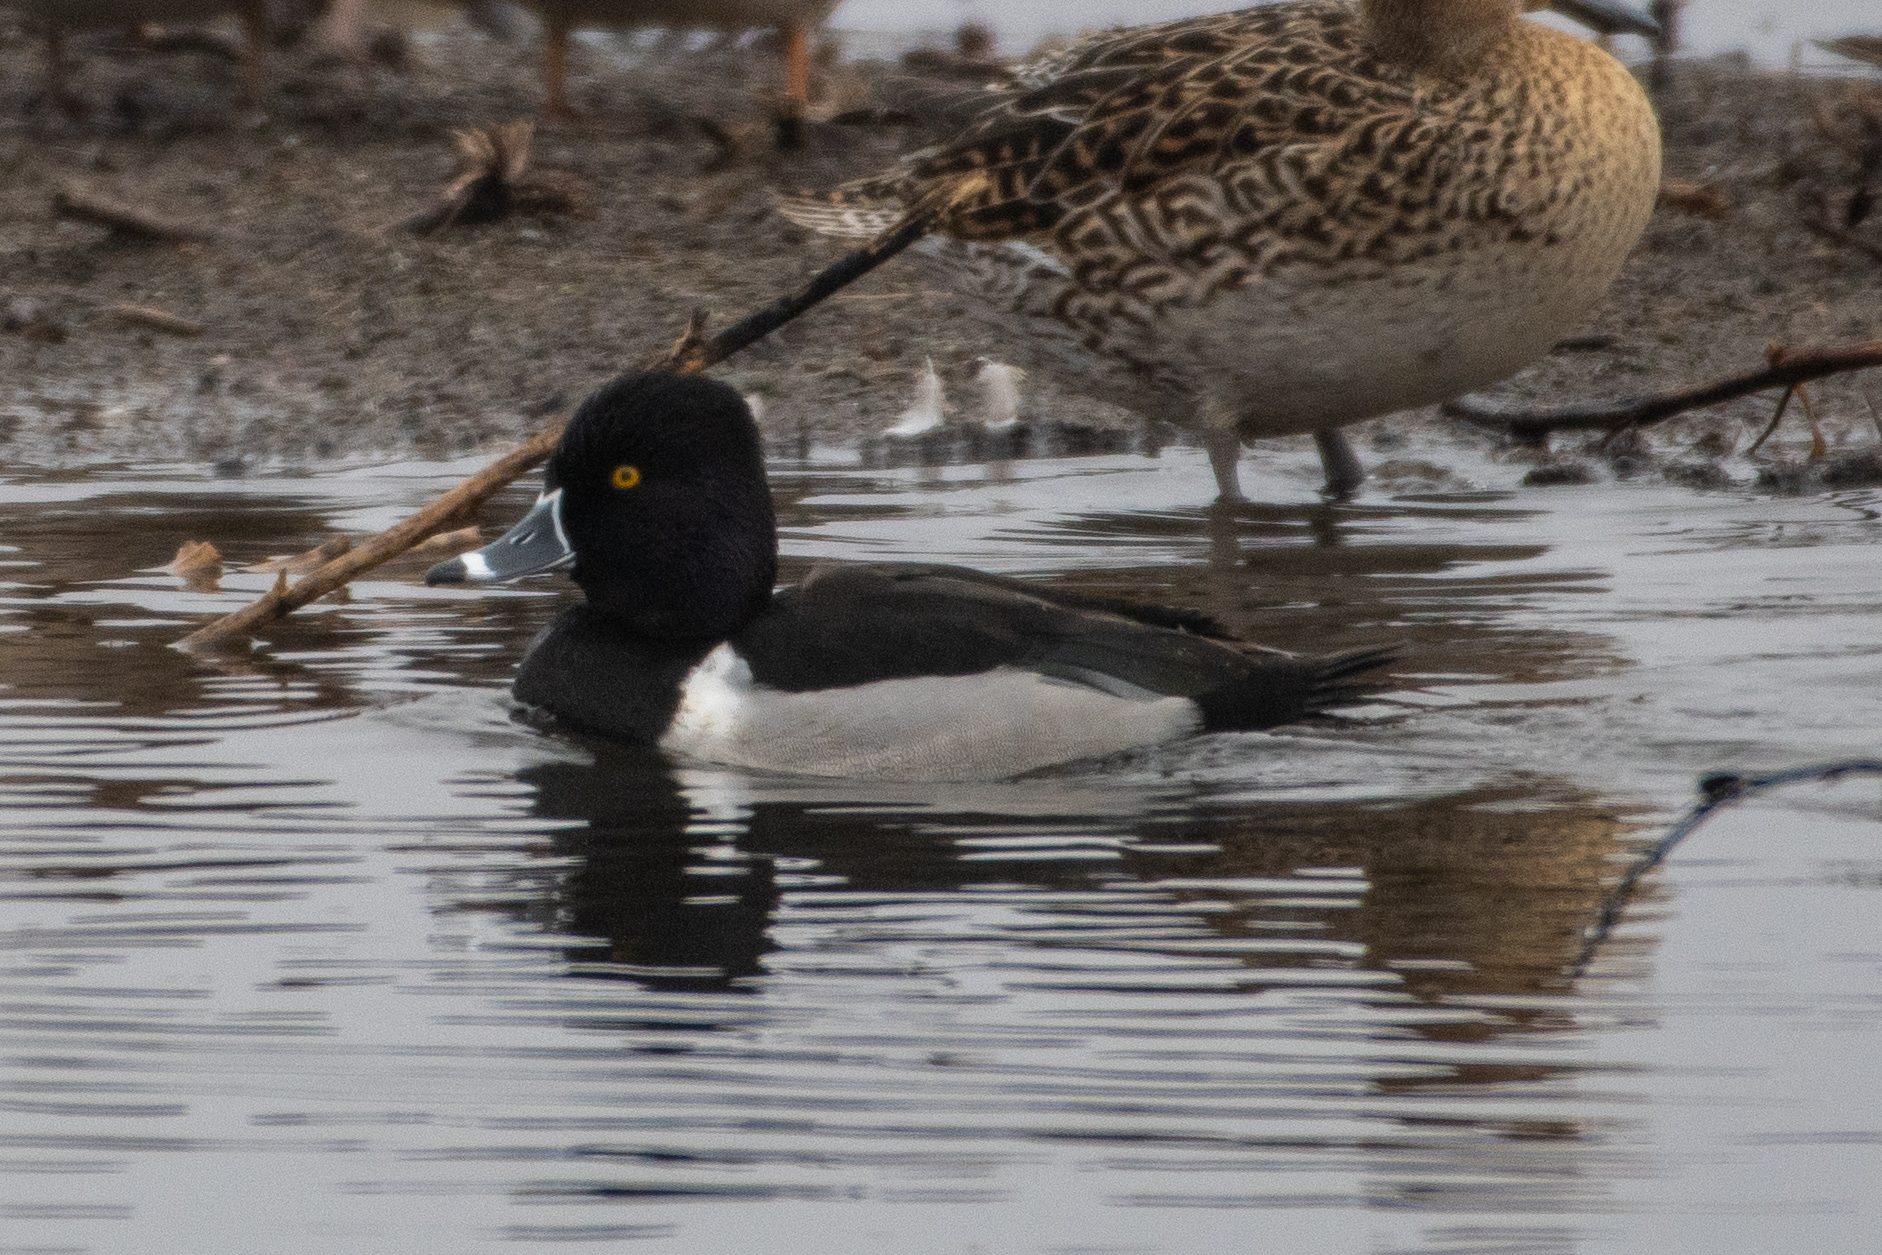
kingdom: Animalia
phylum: Chordata
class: Aves
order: Anseriformes
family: Anatidae
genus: Aythya
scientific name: Aythya collaris
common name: Ring-necked duck
